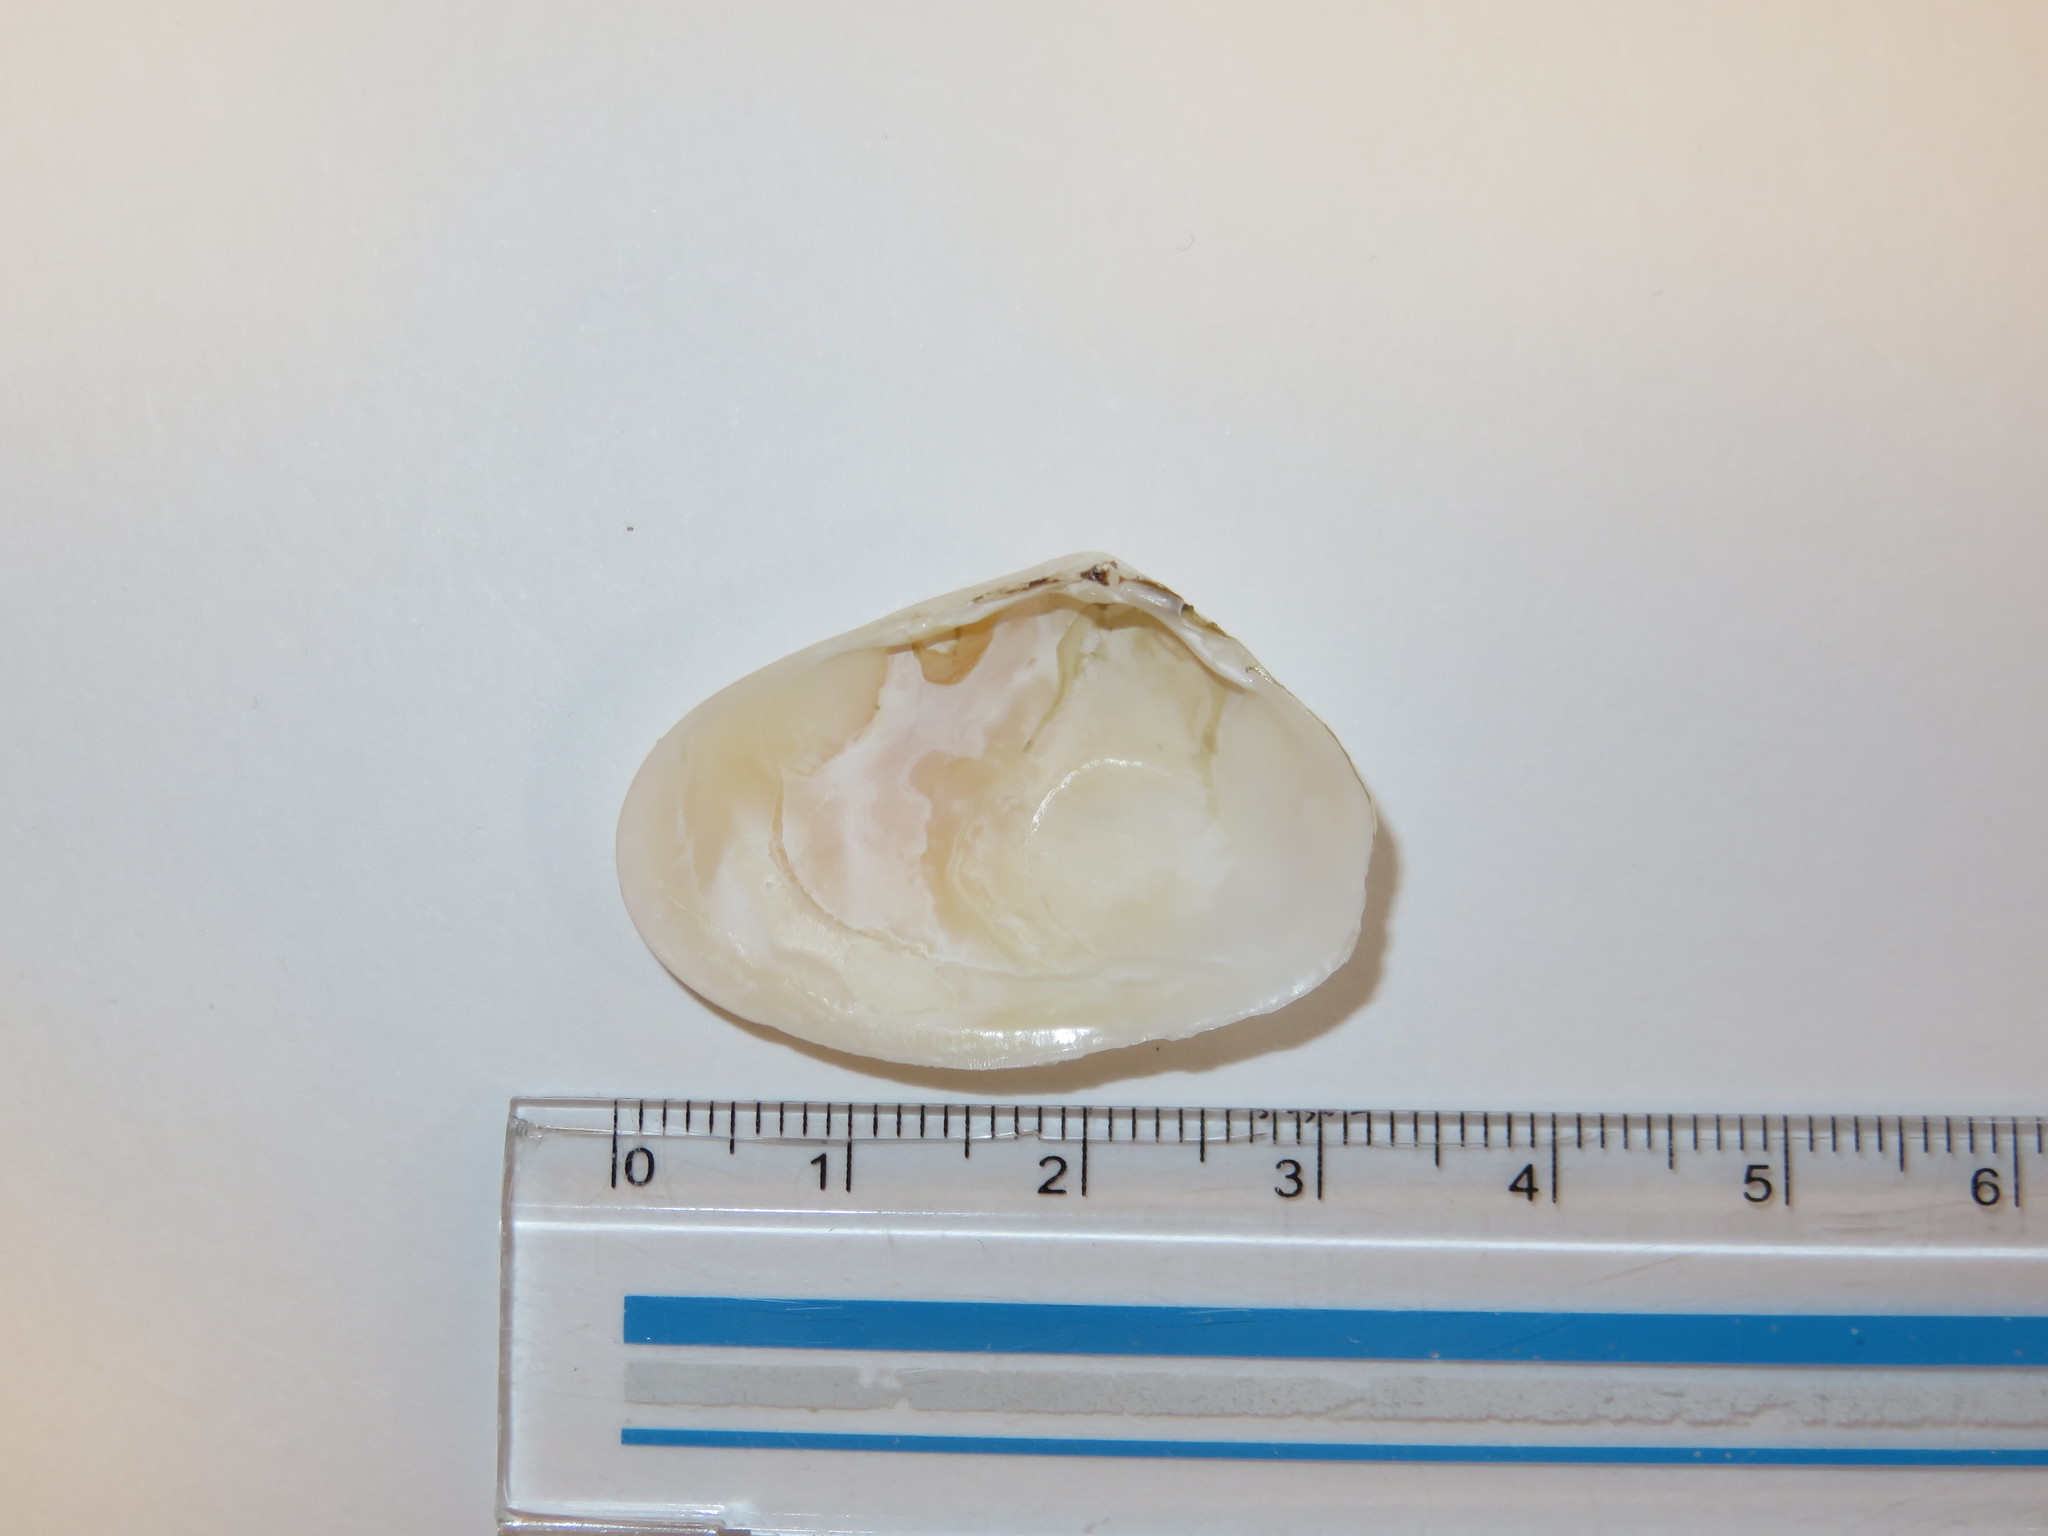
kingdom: Animalia
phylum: Mollusca
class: Bivalvia
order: Cardiida
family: Donacidae
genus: Latona
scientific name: Latona cuneata
